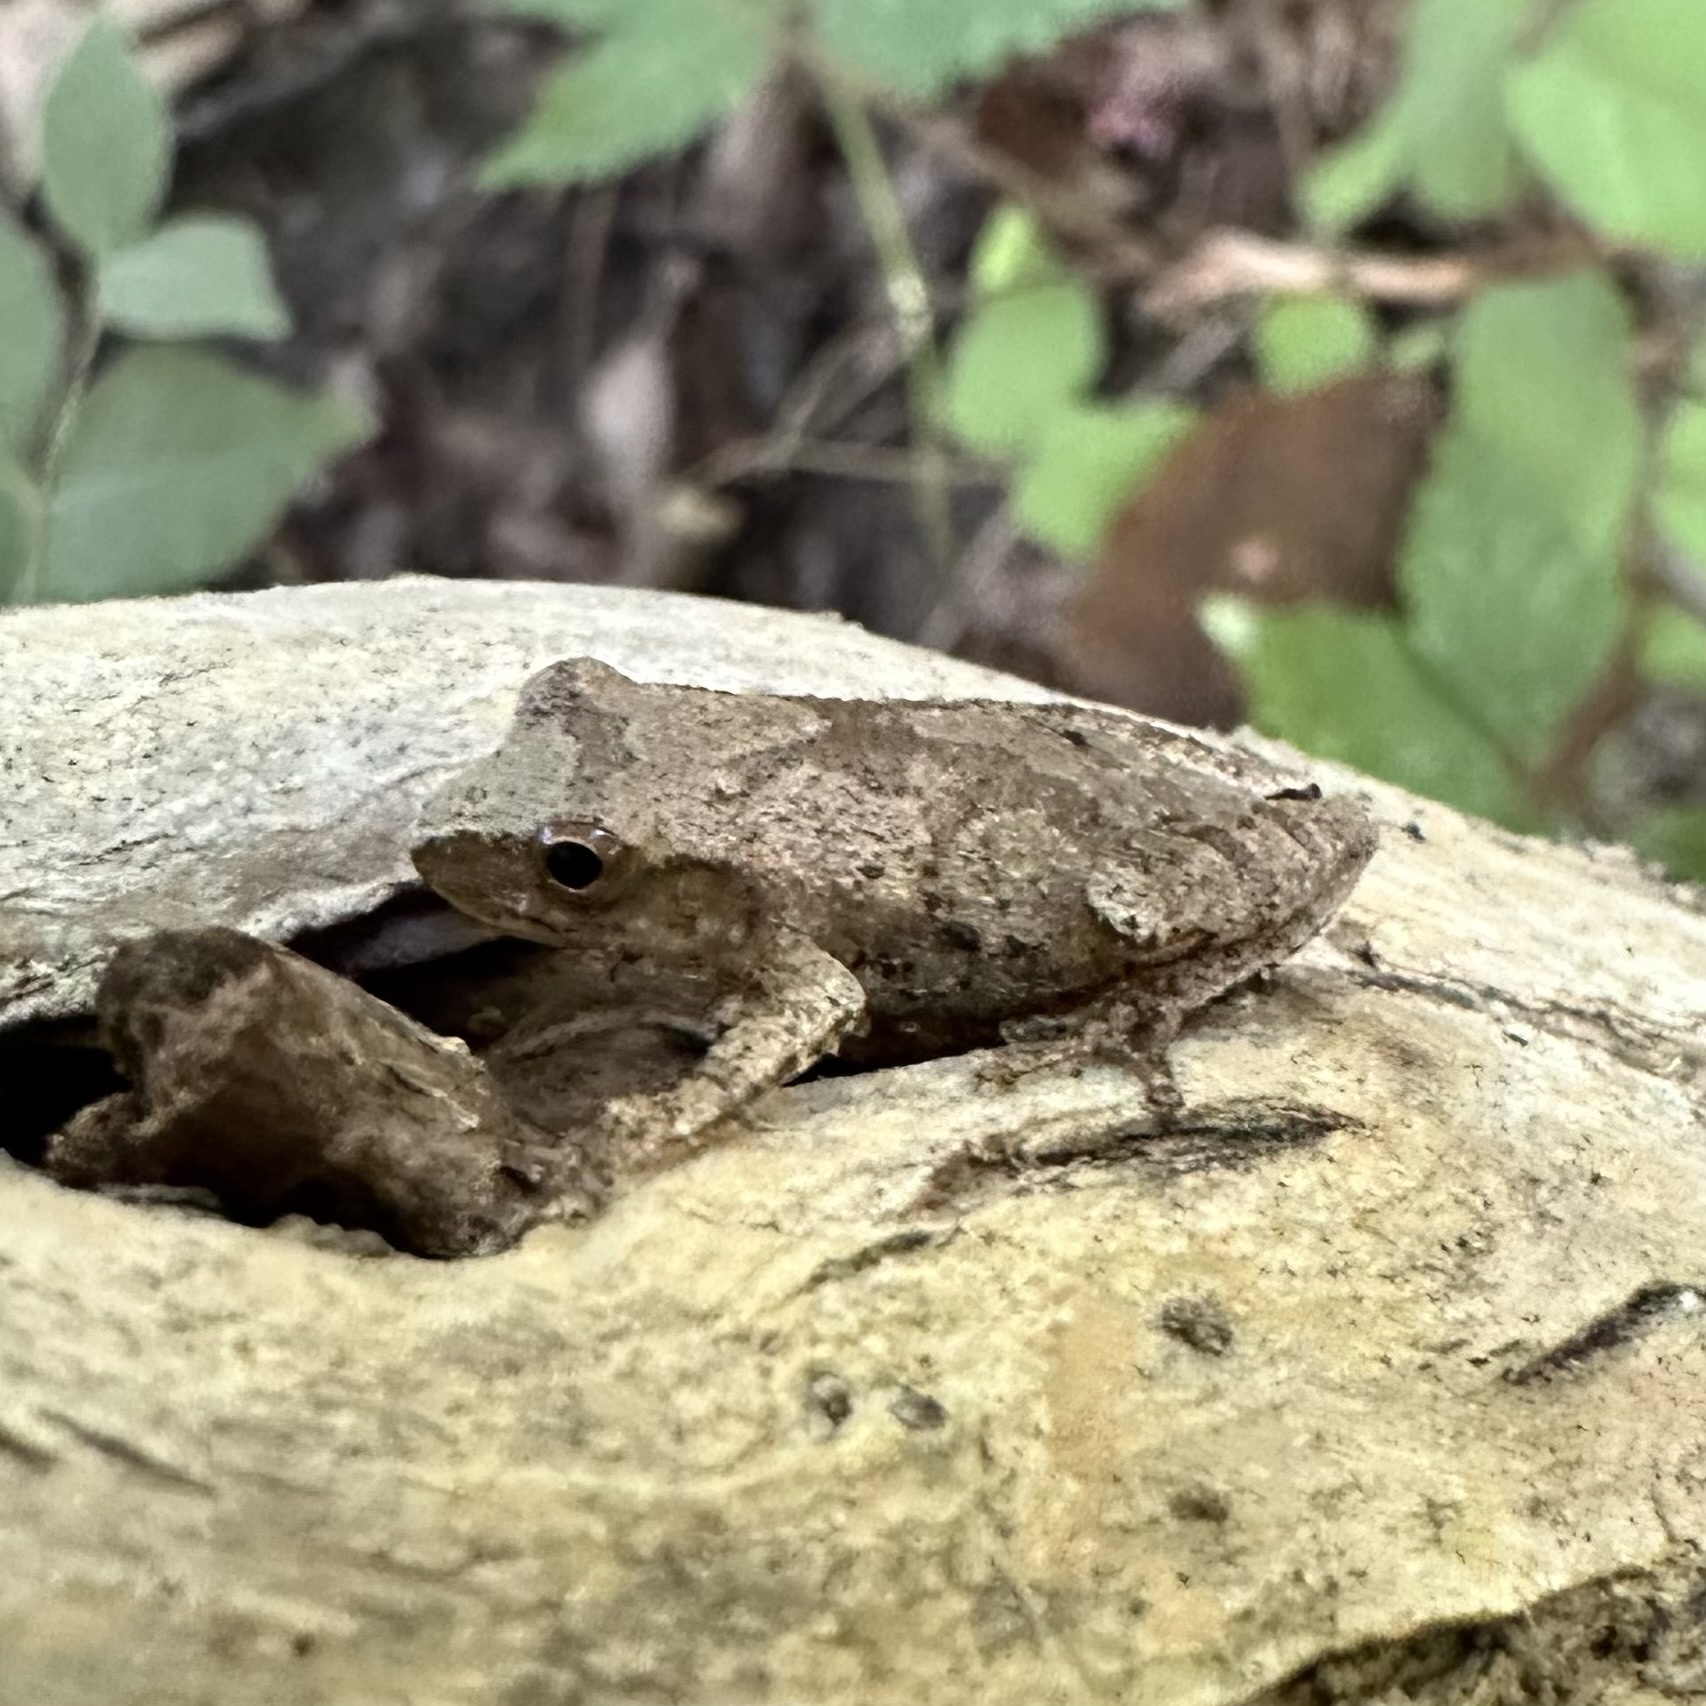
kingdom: Animalia
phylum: Chordata
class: Amphibia
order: Anura
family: Hylidae
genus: Pseudacris
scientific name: Pseudacris crucifer
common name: Spring peeper
